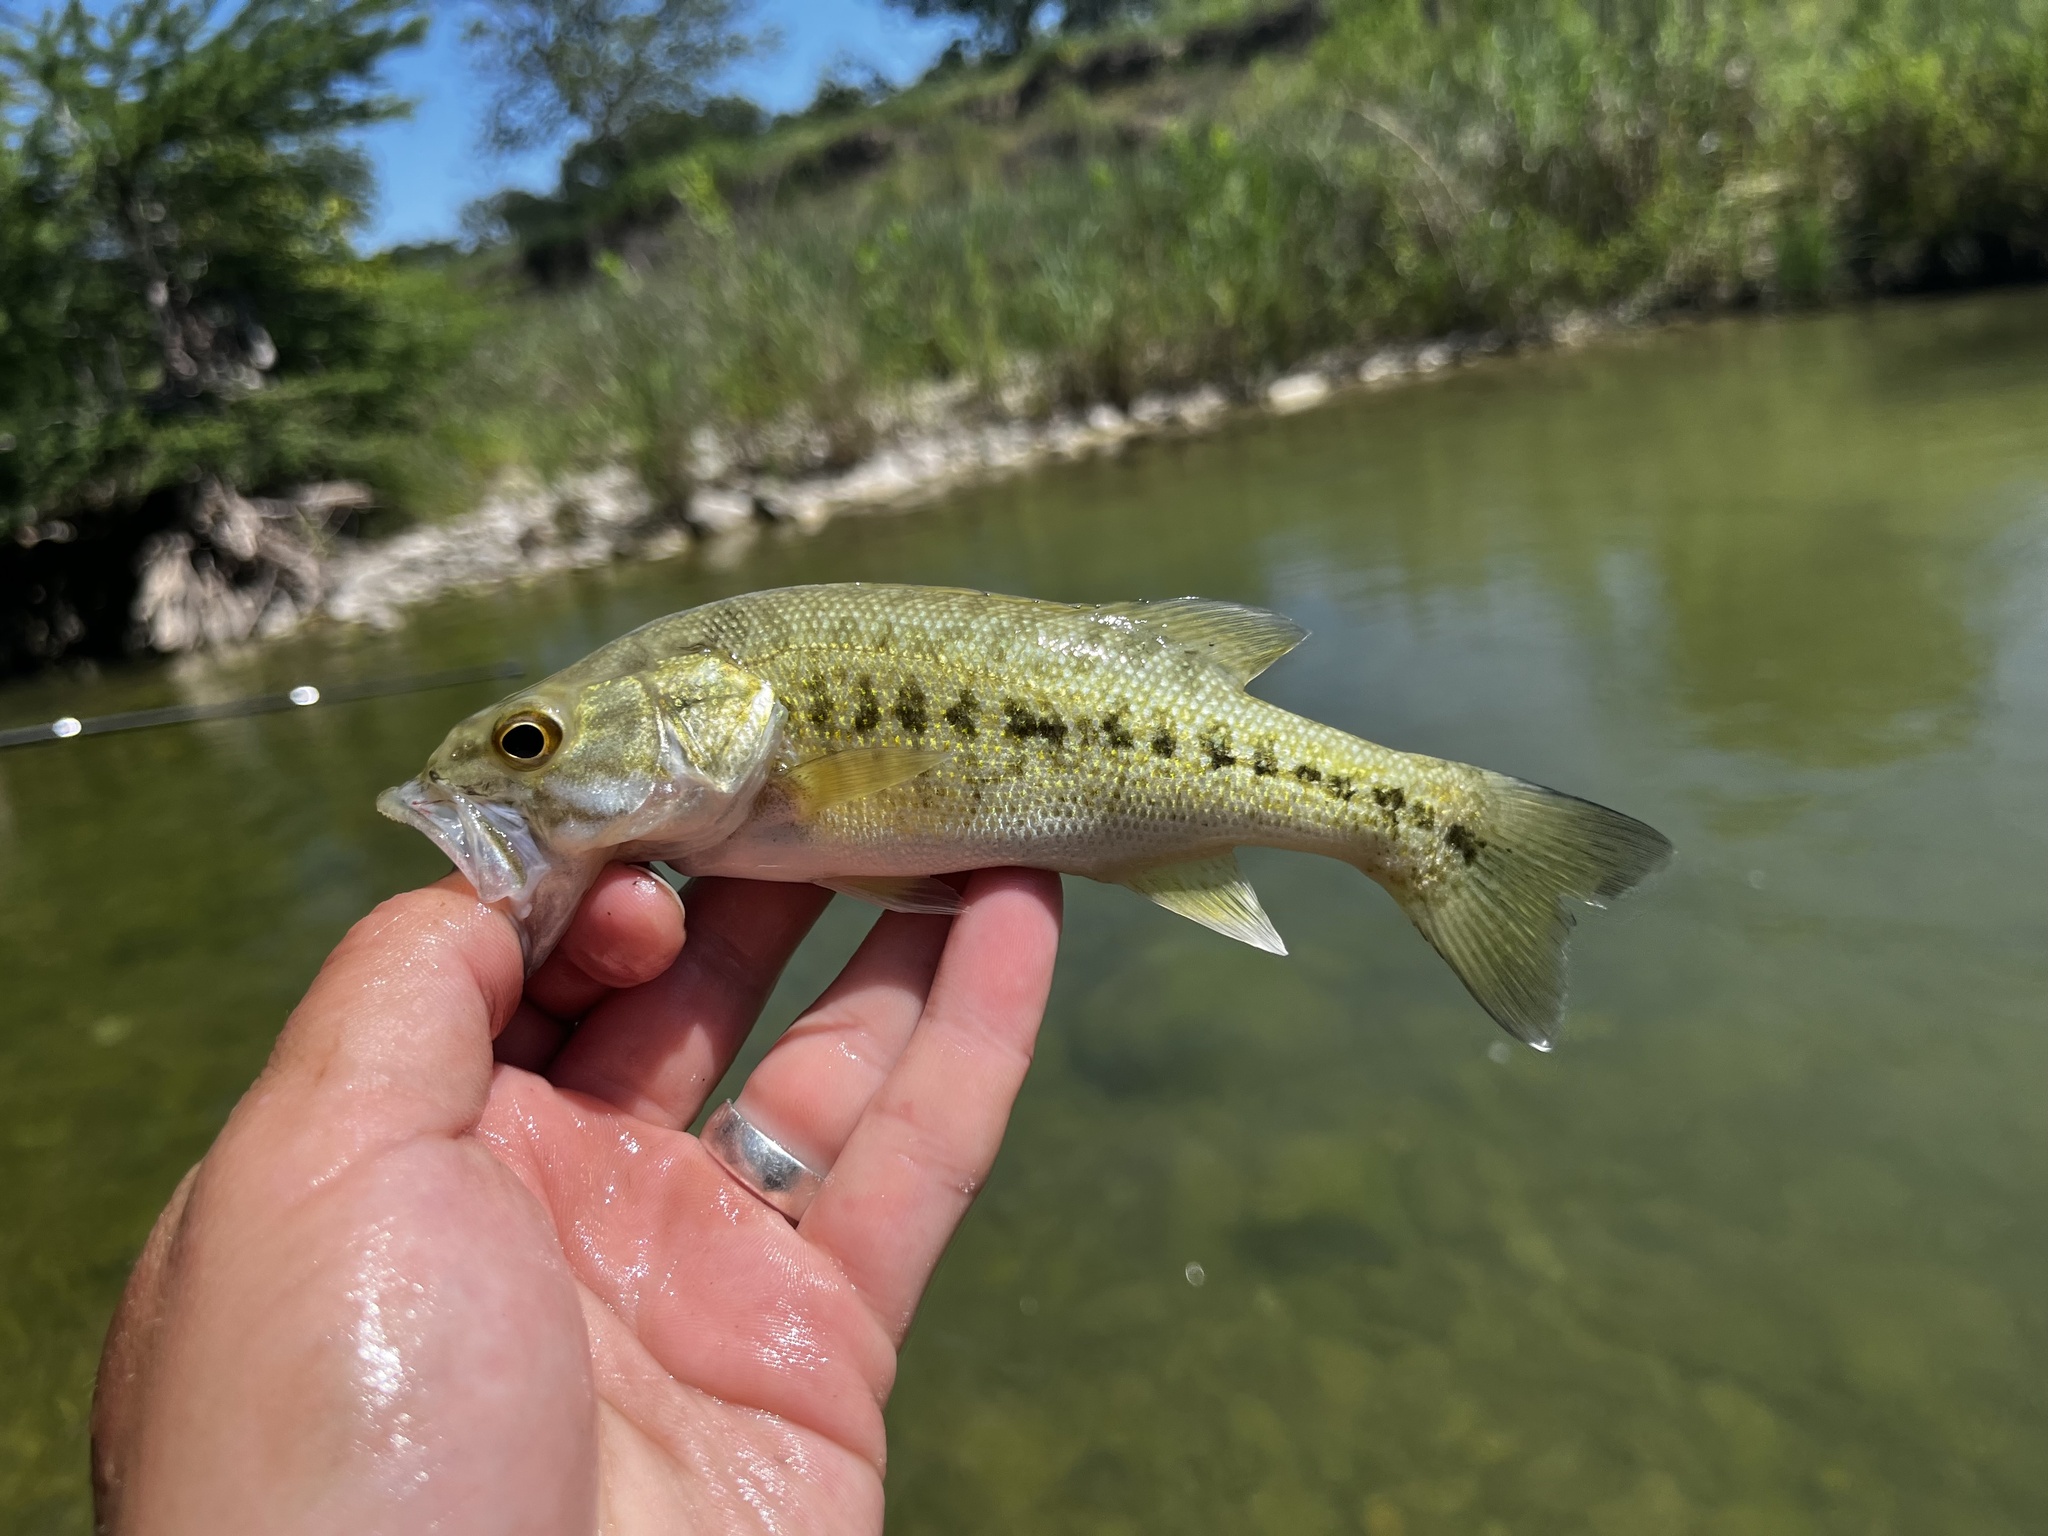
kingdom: Animalia
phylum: Chordata
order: Perciformes
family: Centrarchidae
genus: Micropterus
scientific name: Micropterus treculii
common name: Guadalupe bass
